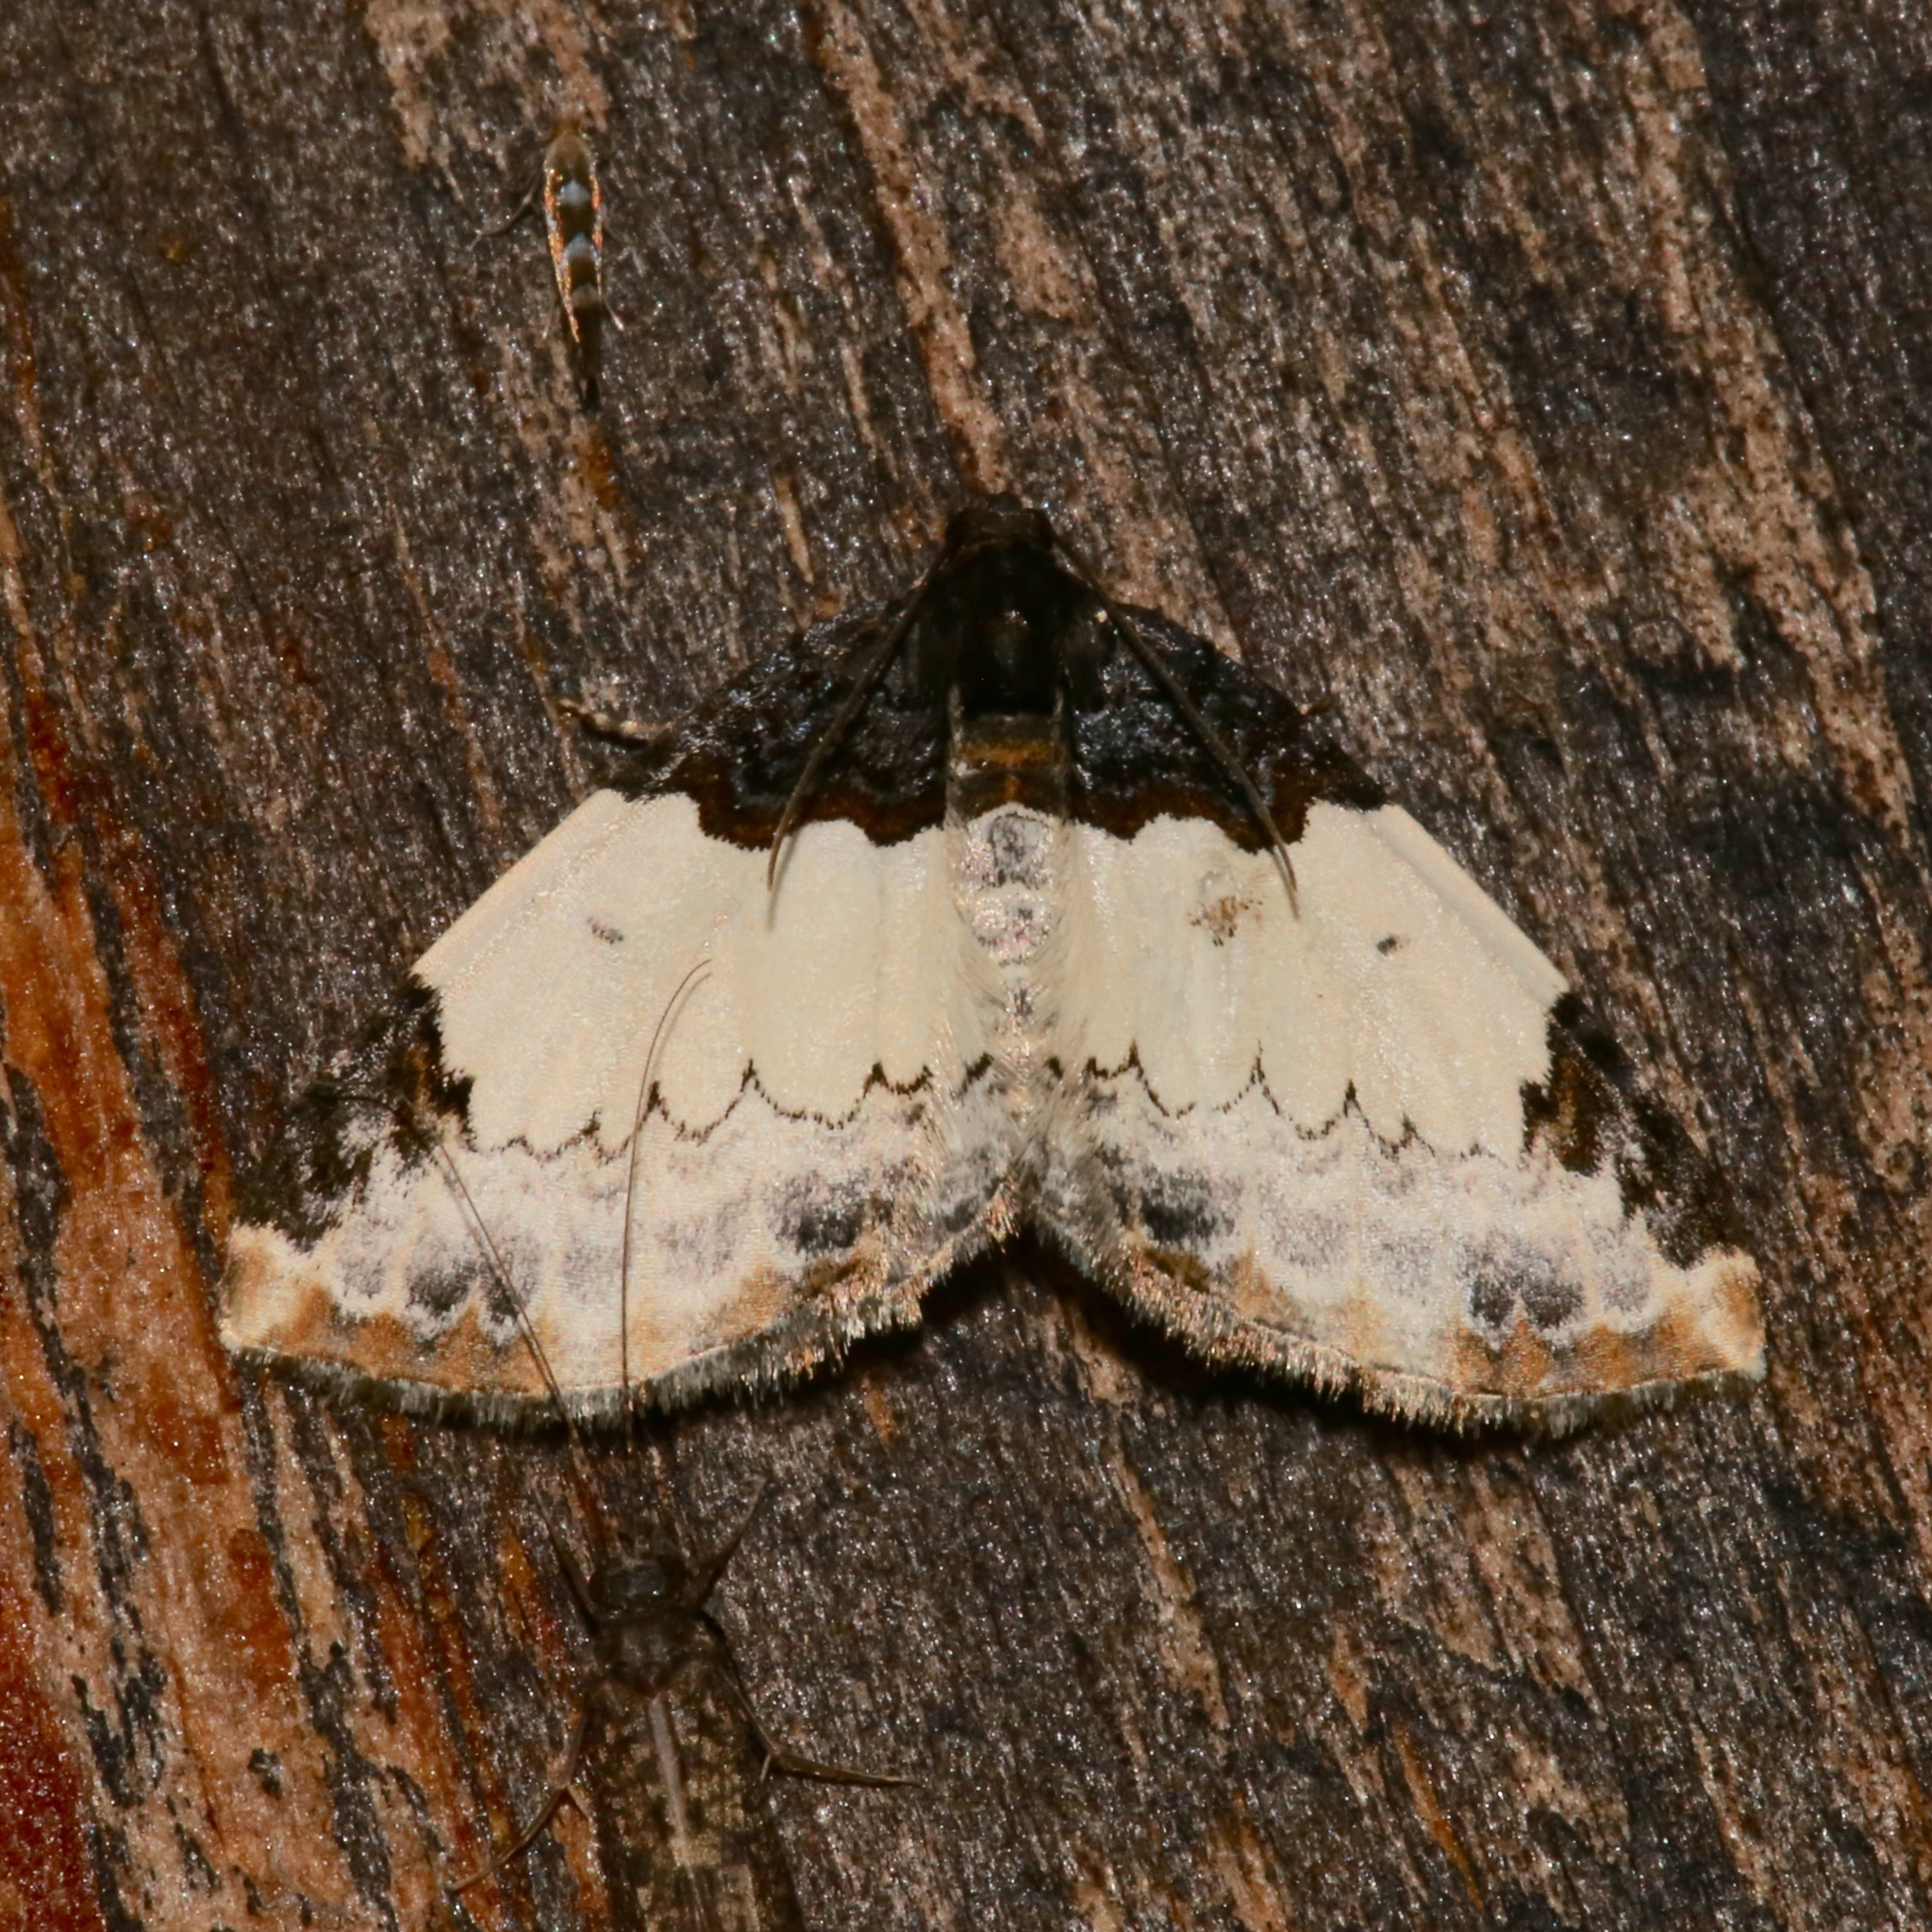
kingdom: Animalia
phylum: Arthropoda
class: Insecta
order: Lepidoptera
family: Geometridae
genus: Mesoleuca
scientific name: Mesoleuca ruficillata
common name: White-ribboned carpet moth
